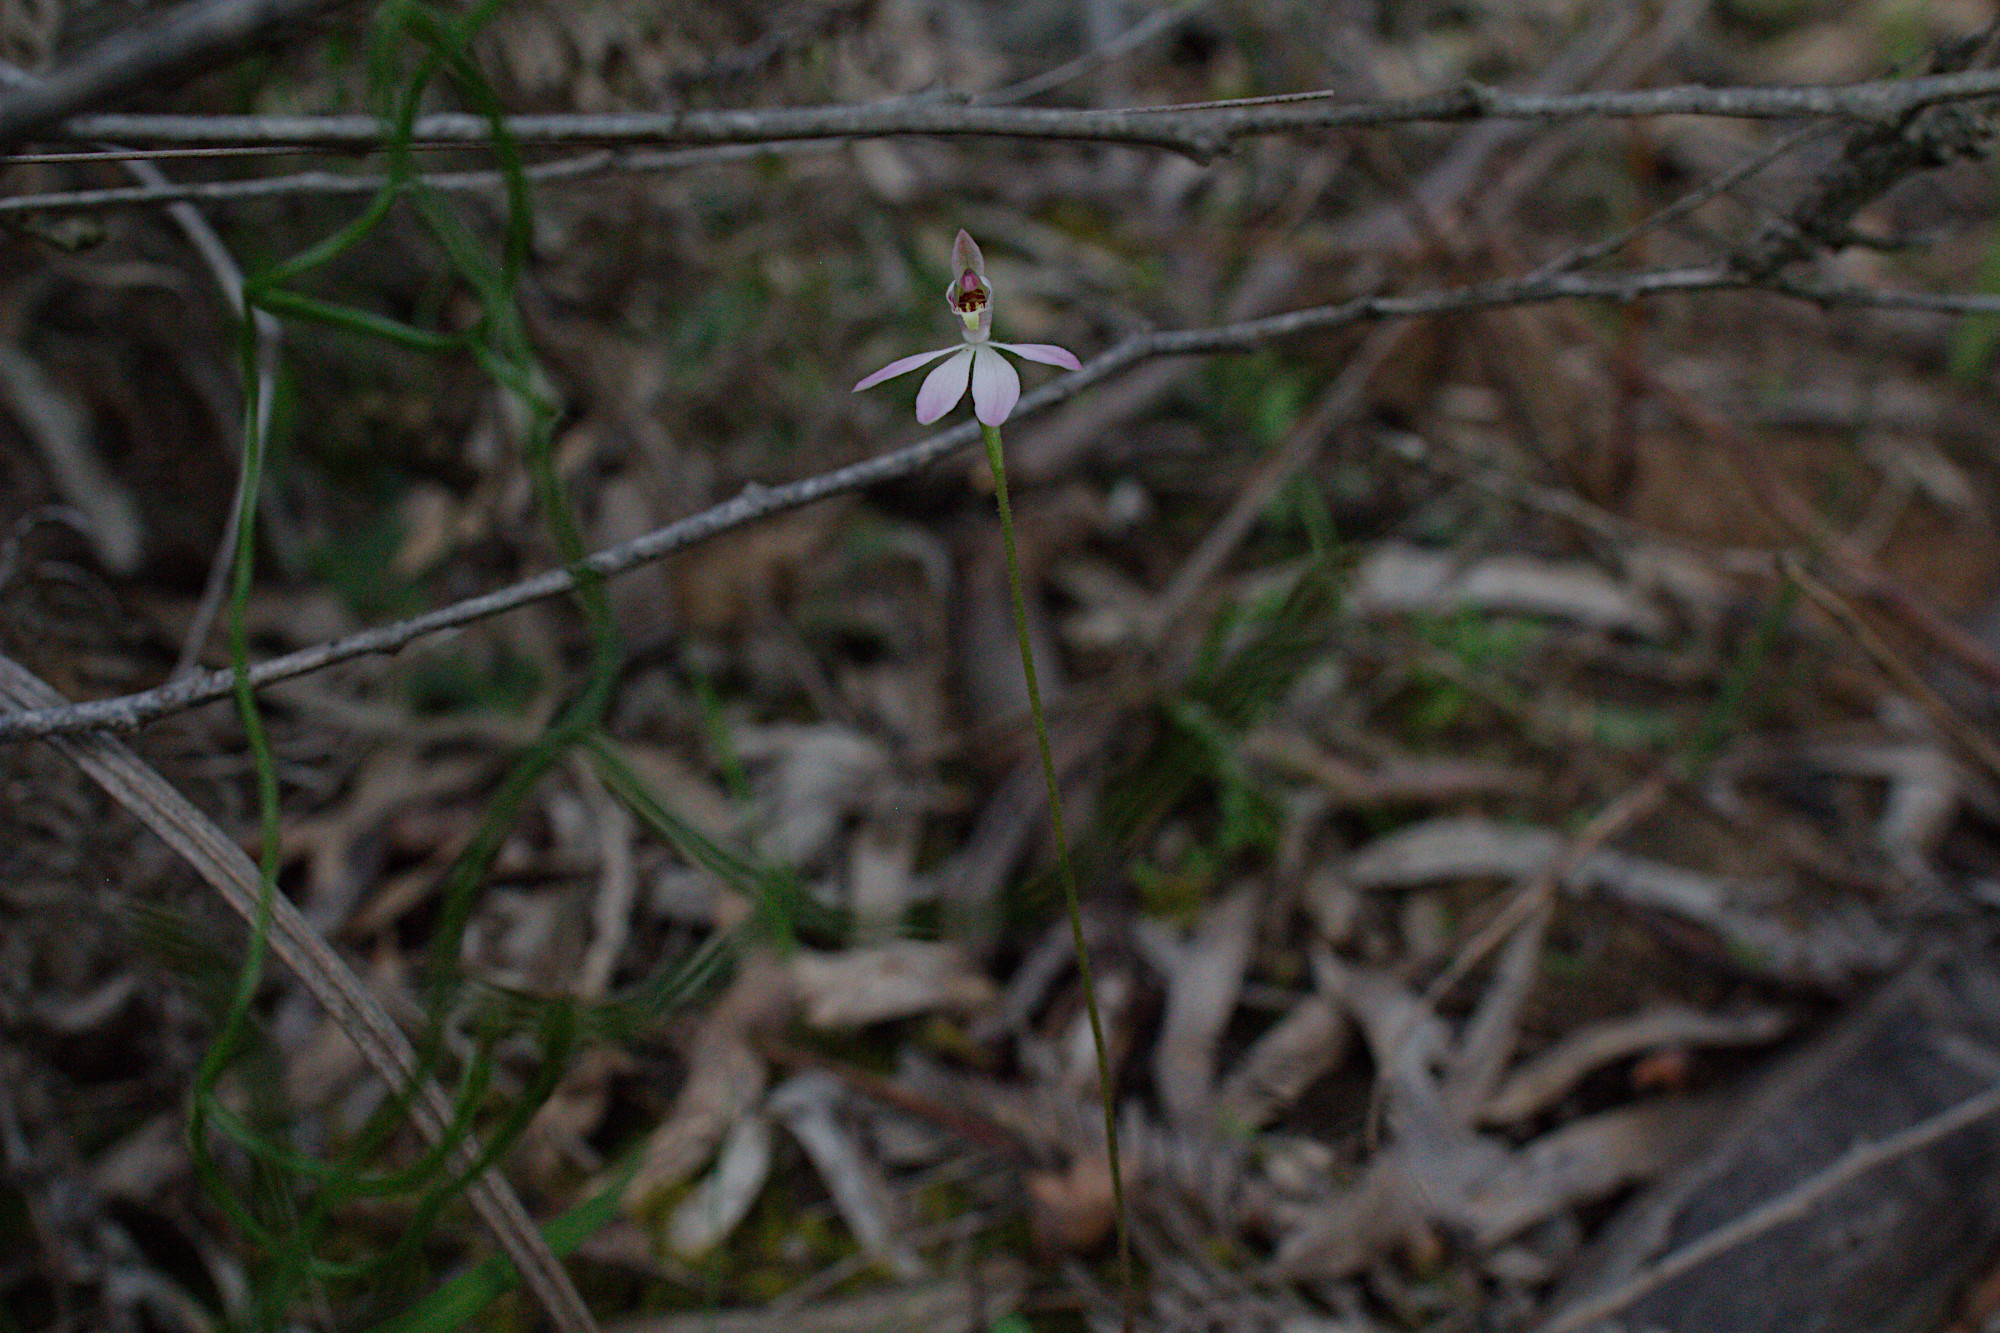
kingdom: Plantae
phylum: Tracheophyta
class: Liliopsida
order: Asparagales
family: Orchidaceae
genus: Caladenia
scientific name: Caladenia carnea
